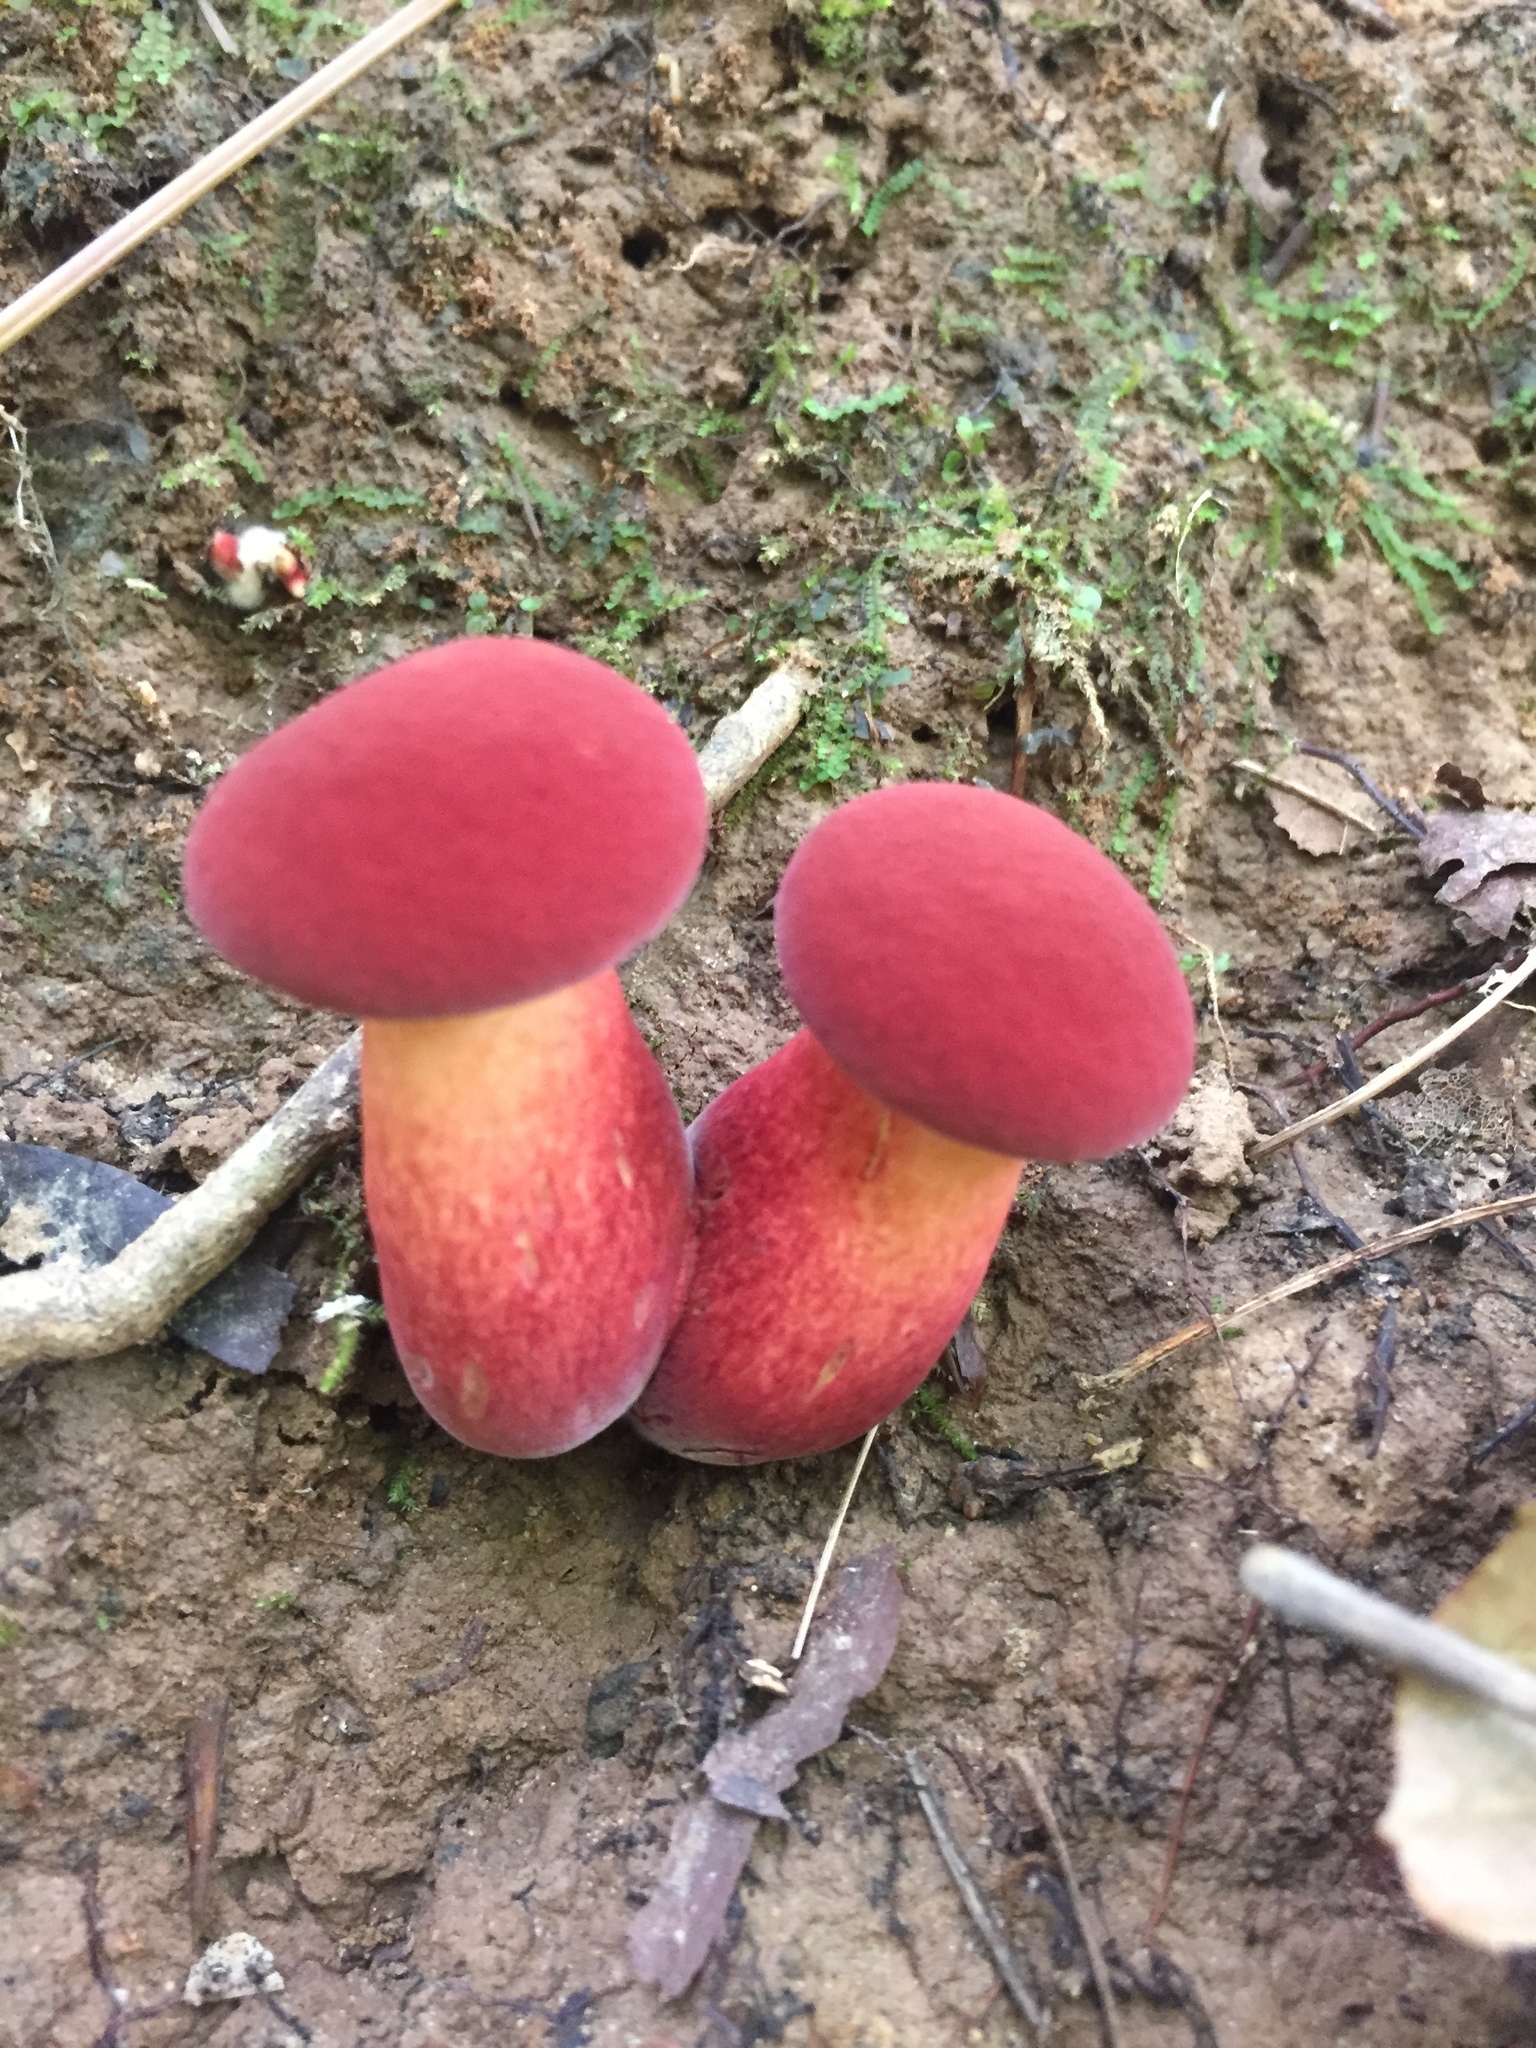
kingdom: Fungi
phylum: Basidiomycota
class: Agaricomycetes
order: Boletales
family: Boletaceae
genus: Baorangia
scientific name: Baorangia bicolor
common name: Two-colored bolete
